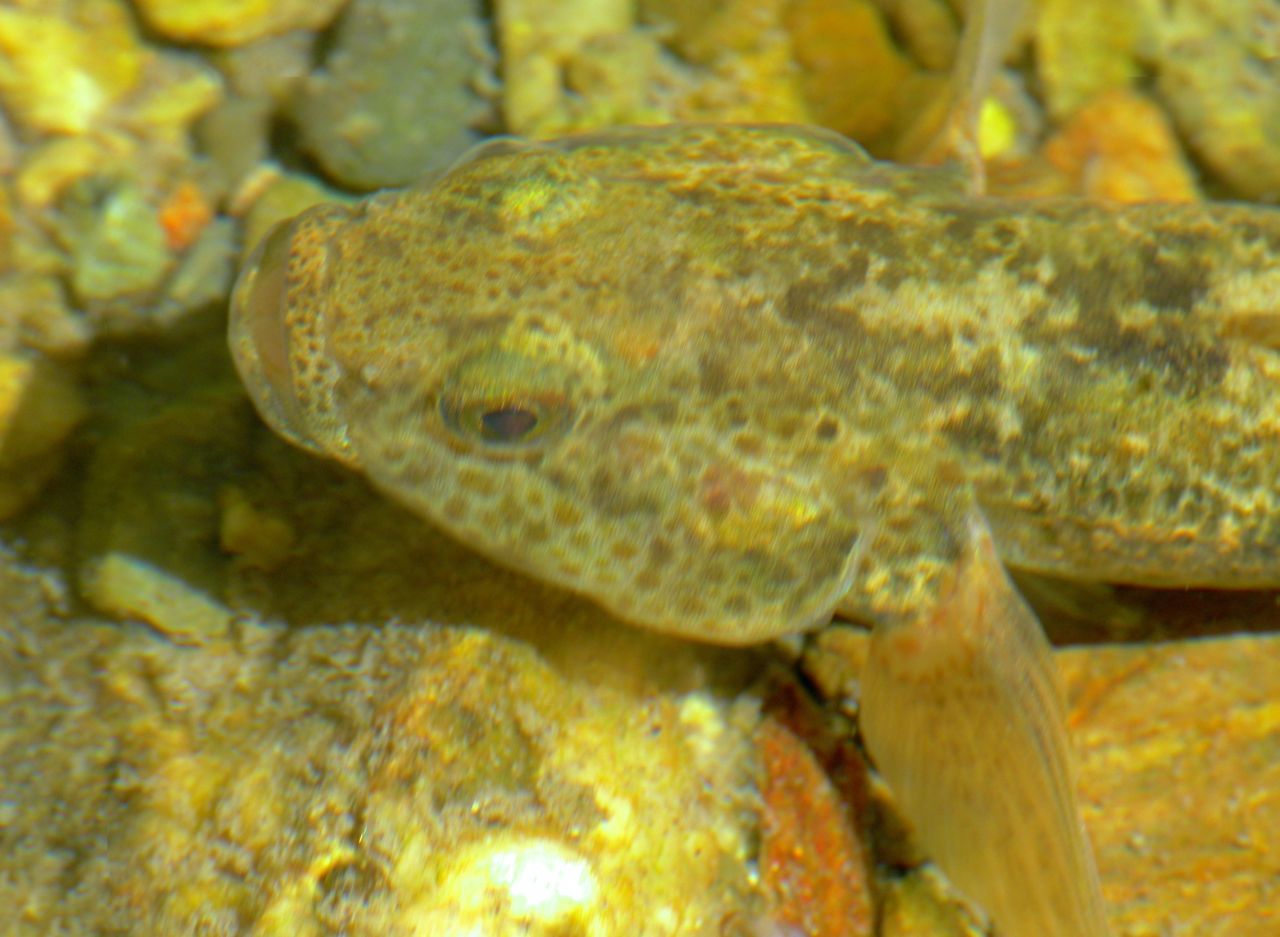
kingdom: Animalia
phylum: Chordata
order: Perciformes
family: Eleotridae
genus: Gobiomorphus
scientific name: Gobiomorphus breviceps
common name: Upland bully
